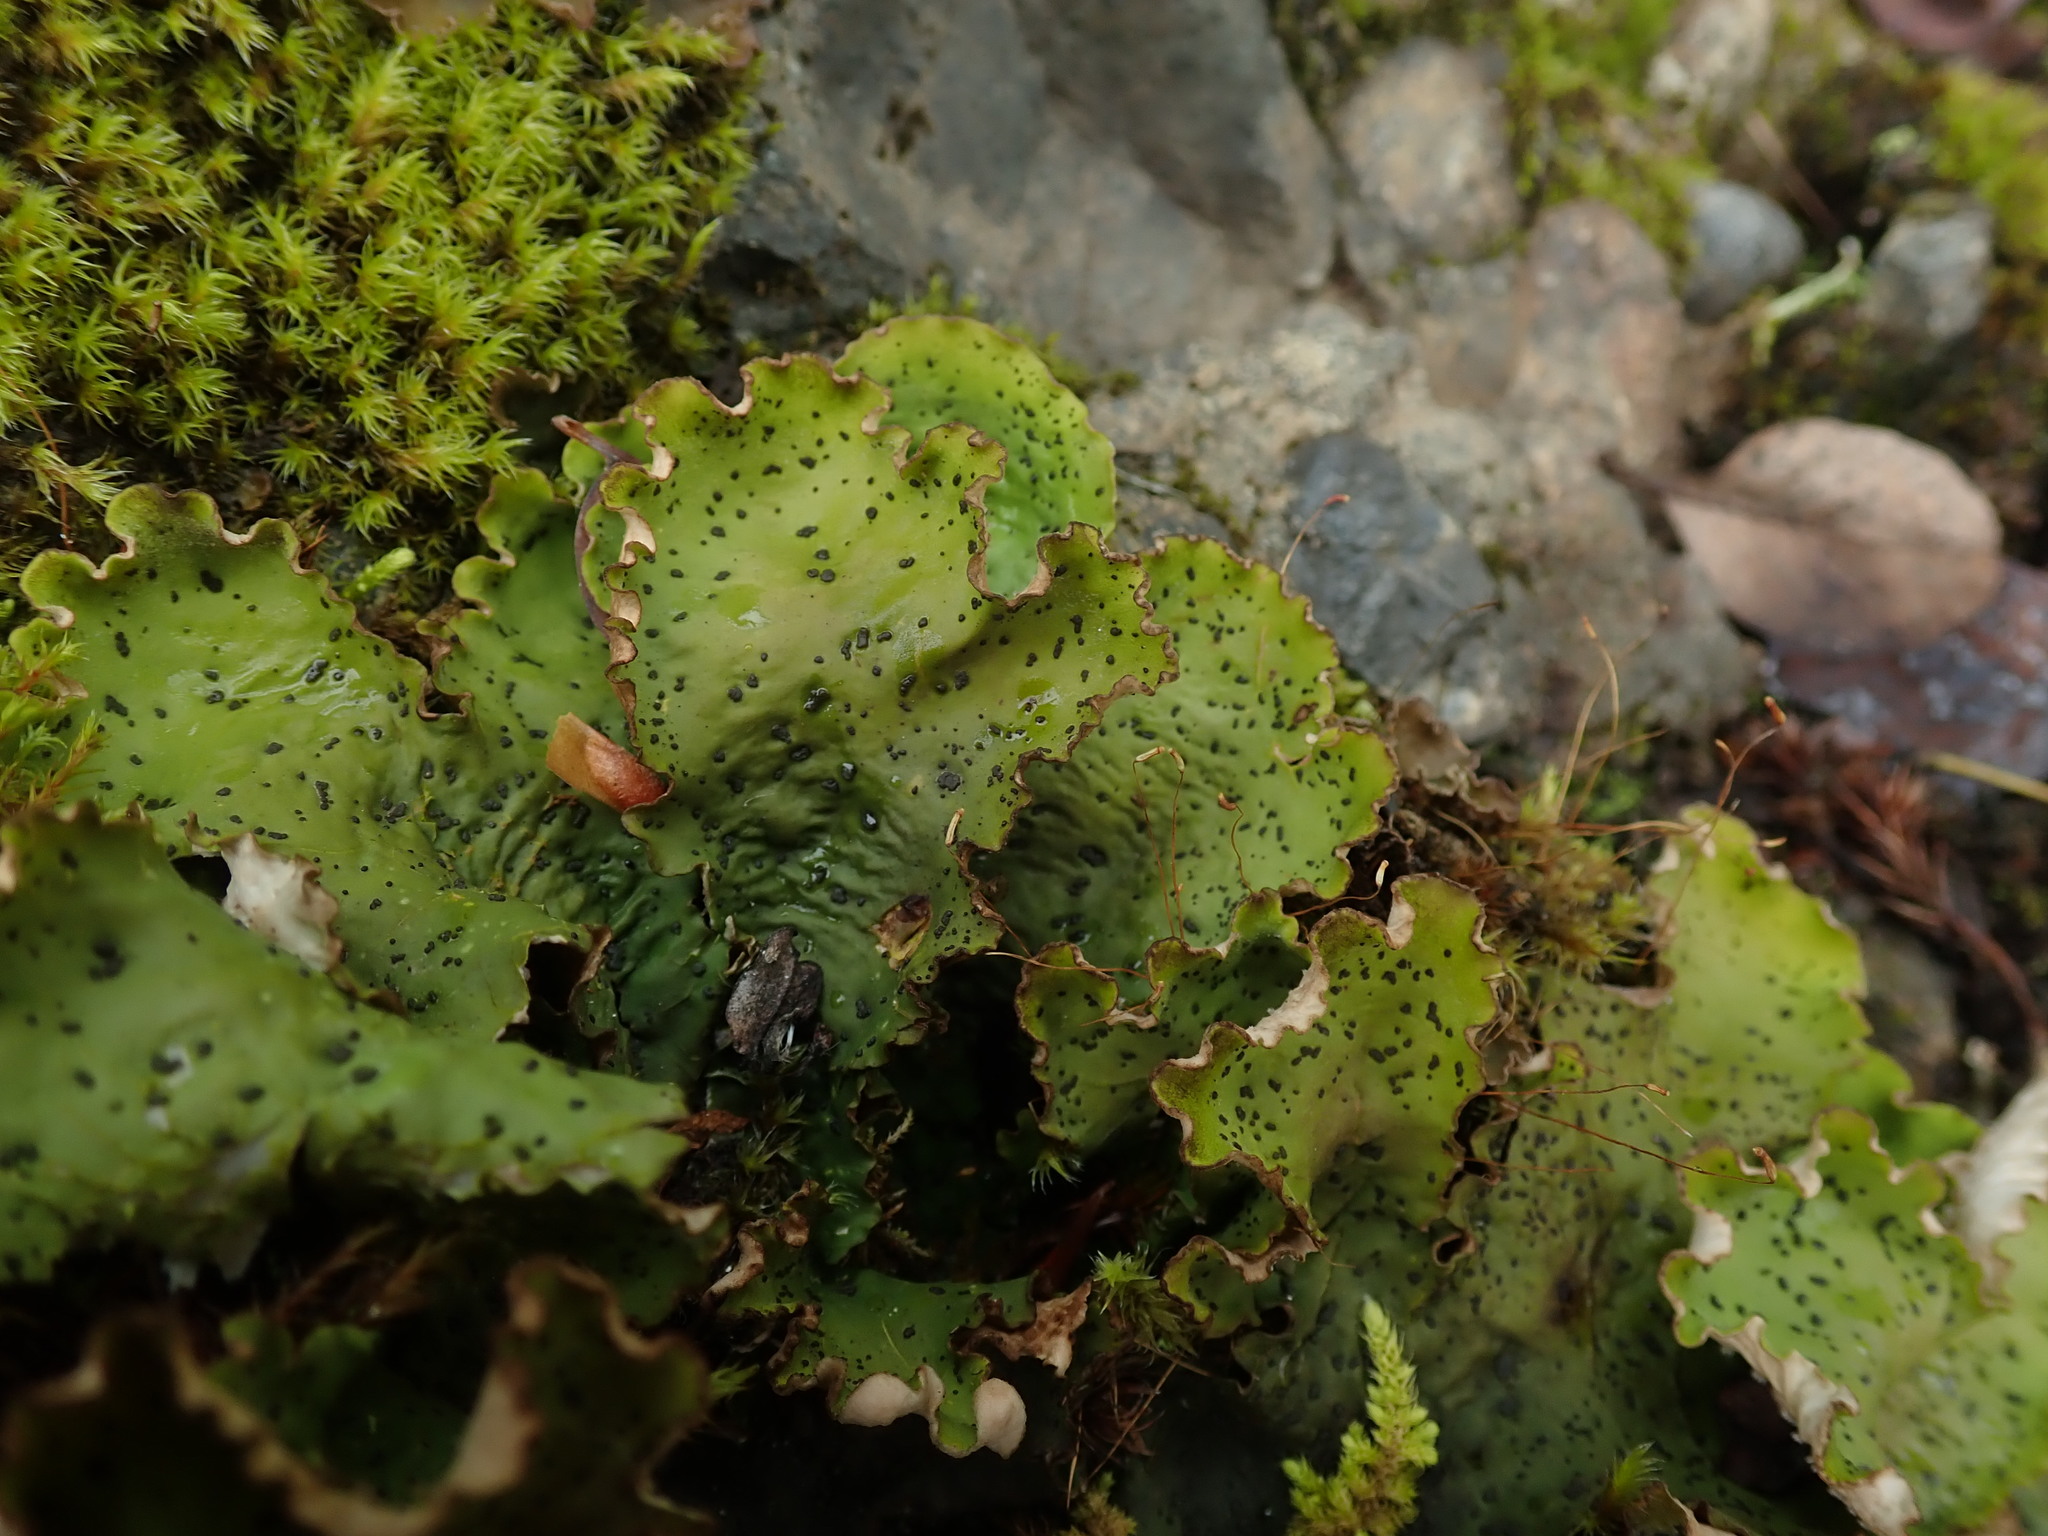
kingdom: Fungi
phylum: Ascomycota
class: Lecanoromycetes
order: Peltigerales
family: Peltigeraceae
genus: Peltigera
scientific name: Peltigera aphthosa
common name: Common freckle pelt lichen
